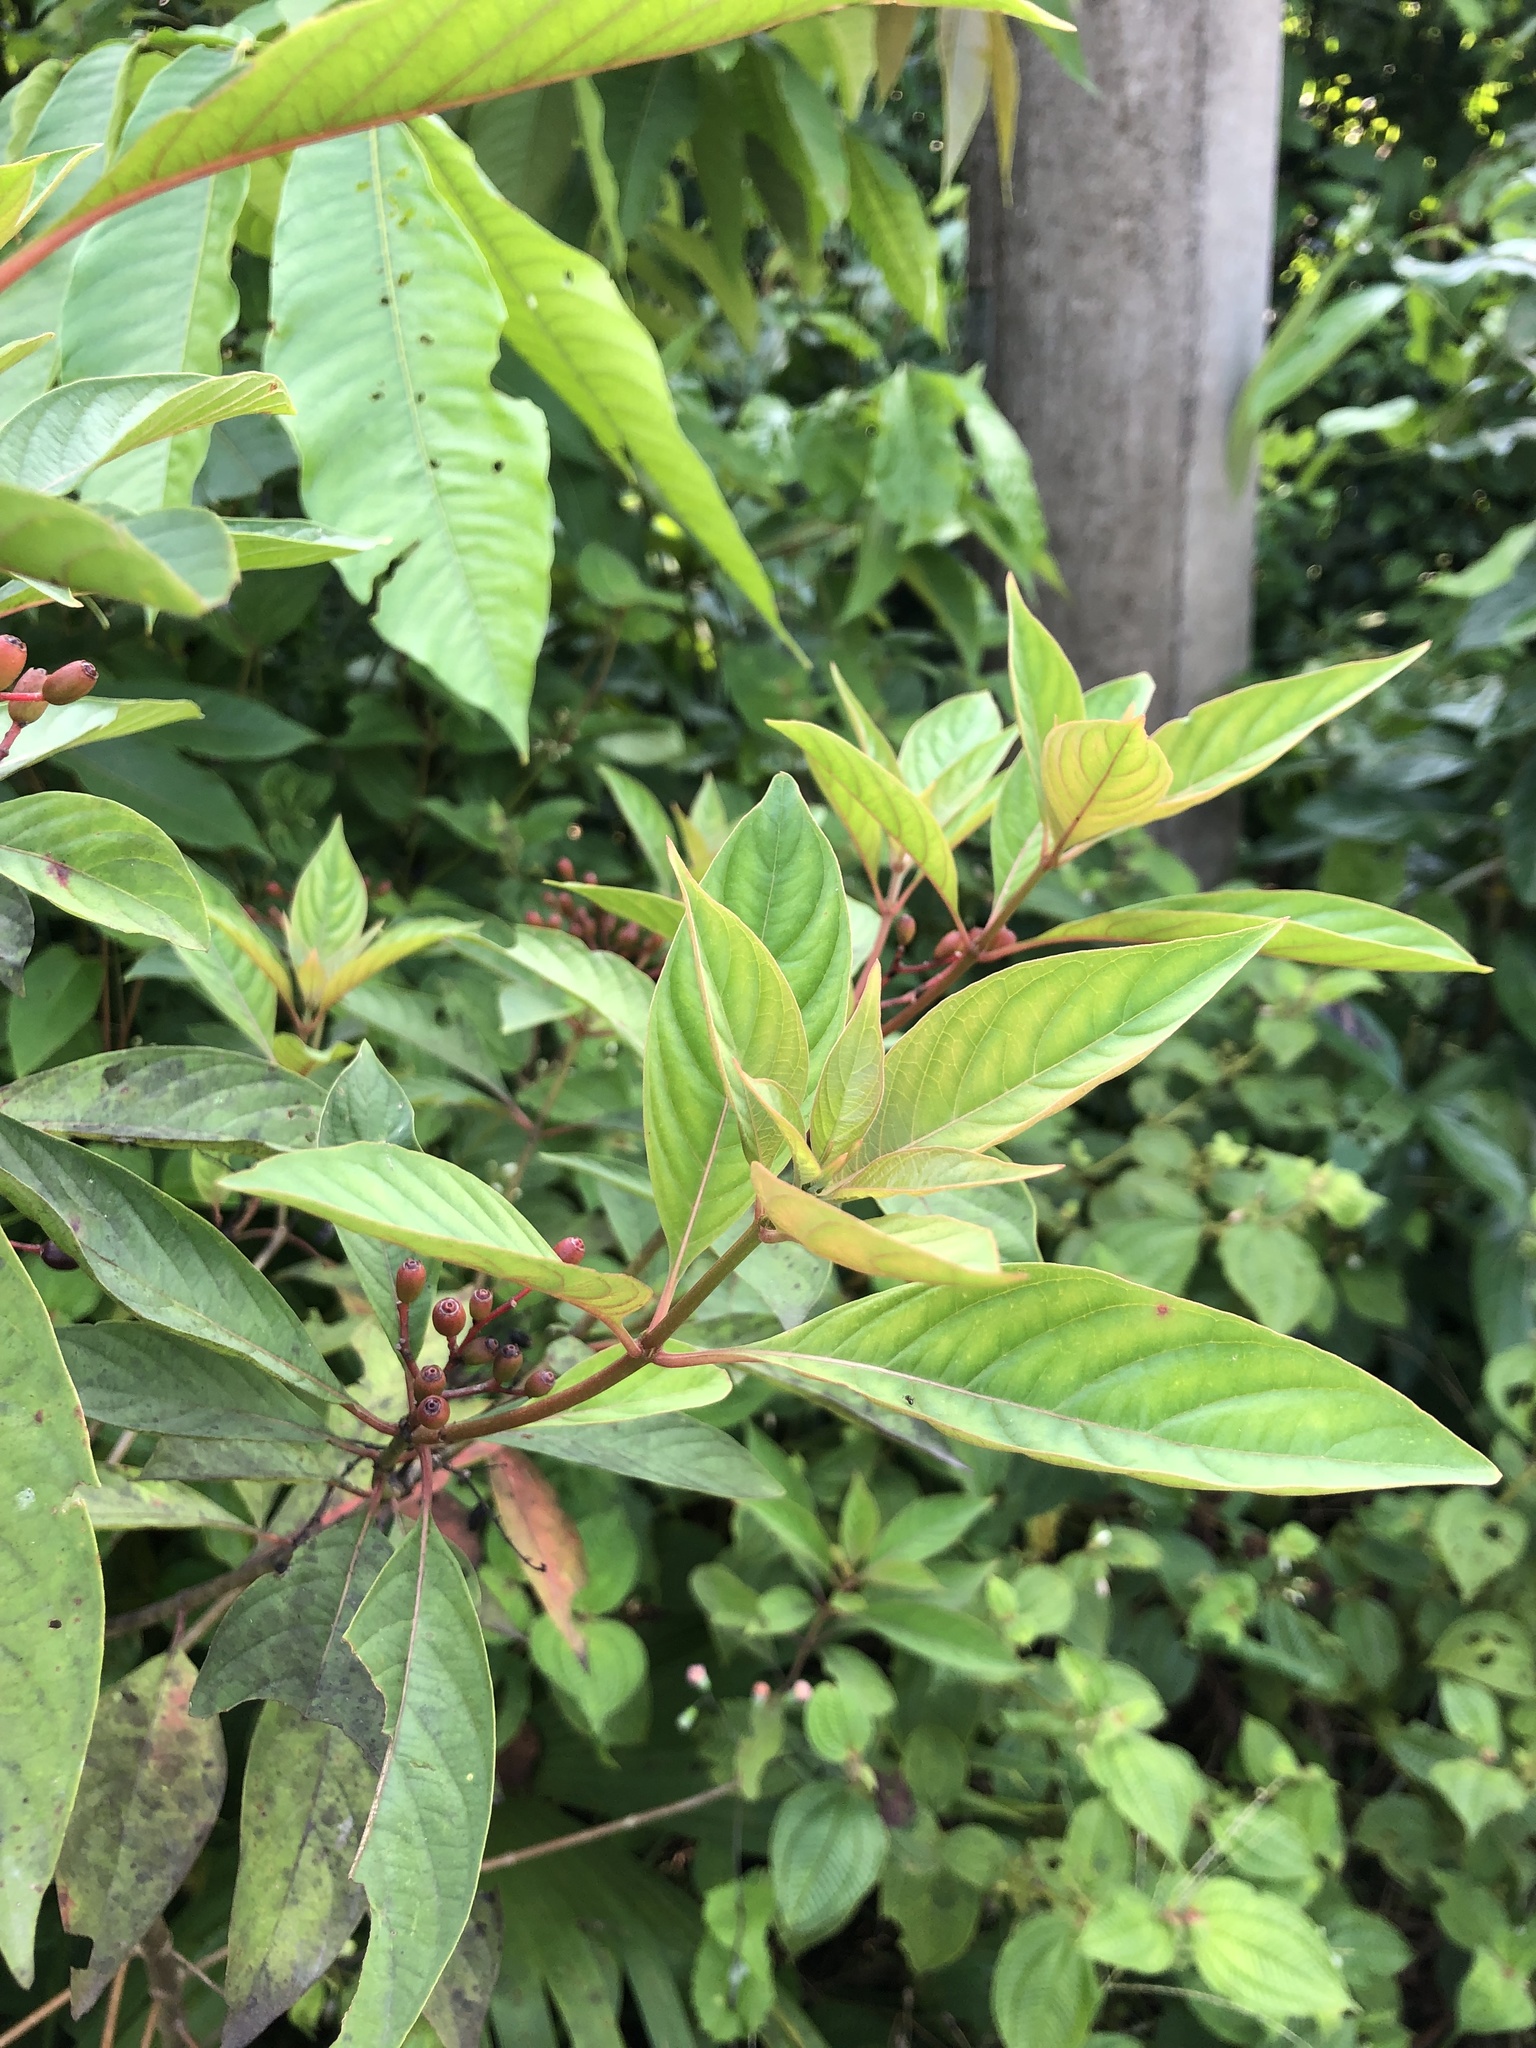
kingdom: Plantae
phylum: Tracheophyta
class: Magnoliopsida
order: Gentianales
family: Rubiaceae
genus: Hamelia
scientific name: Hamelia patens
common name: Redhead
